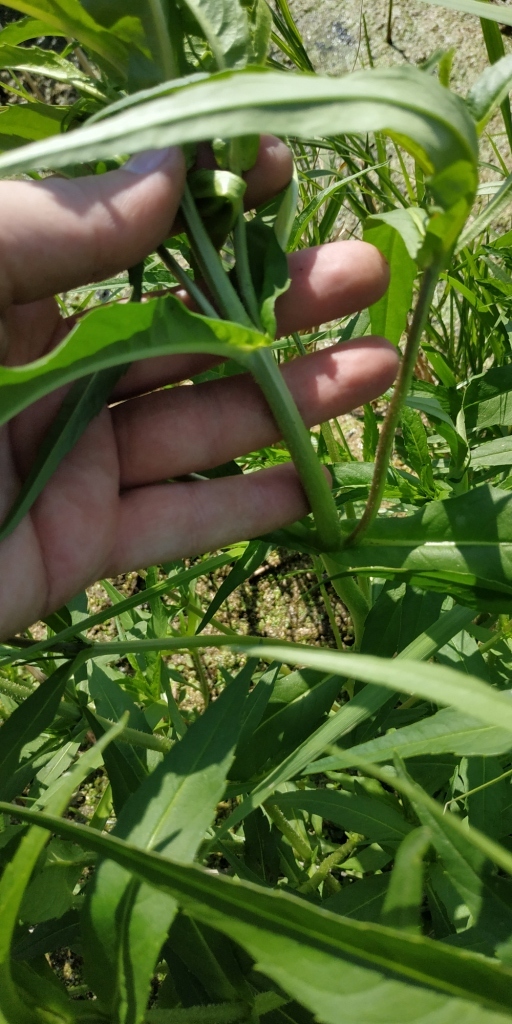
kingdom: Plantae
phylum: Tracheophyta
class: Magnoliopsida
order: Asterales
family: Asteraceae
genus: Bidens
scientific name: Bidens cernua
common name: Nodding bur-marigold
